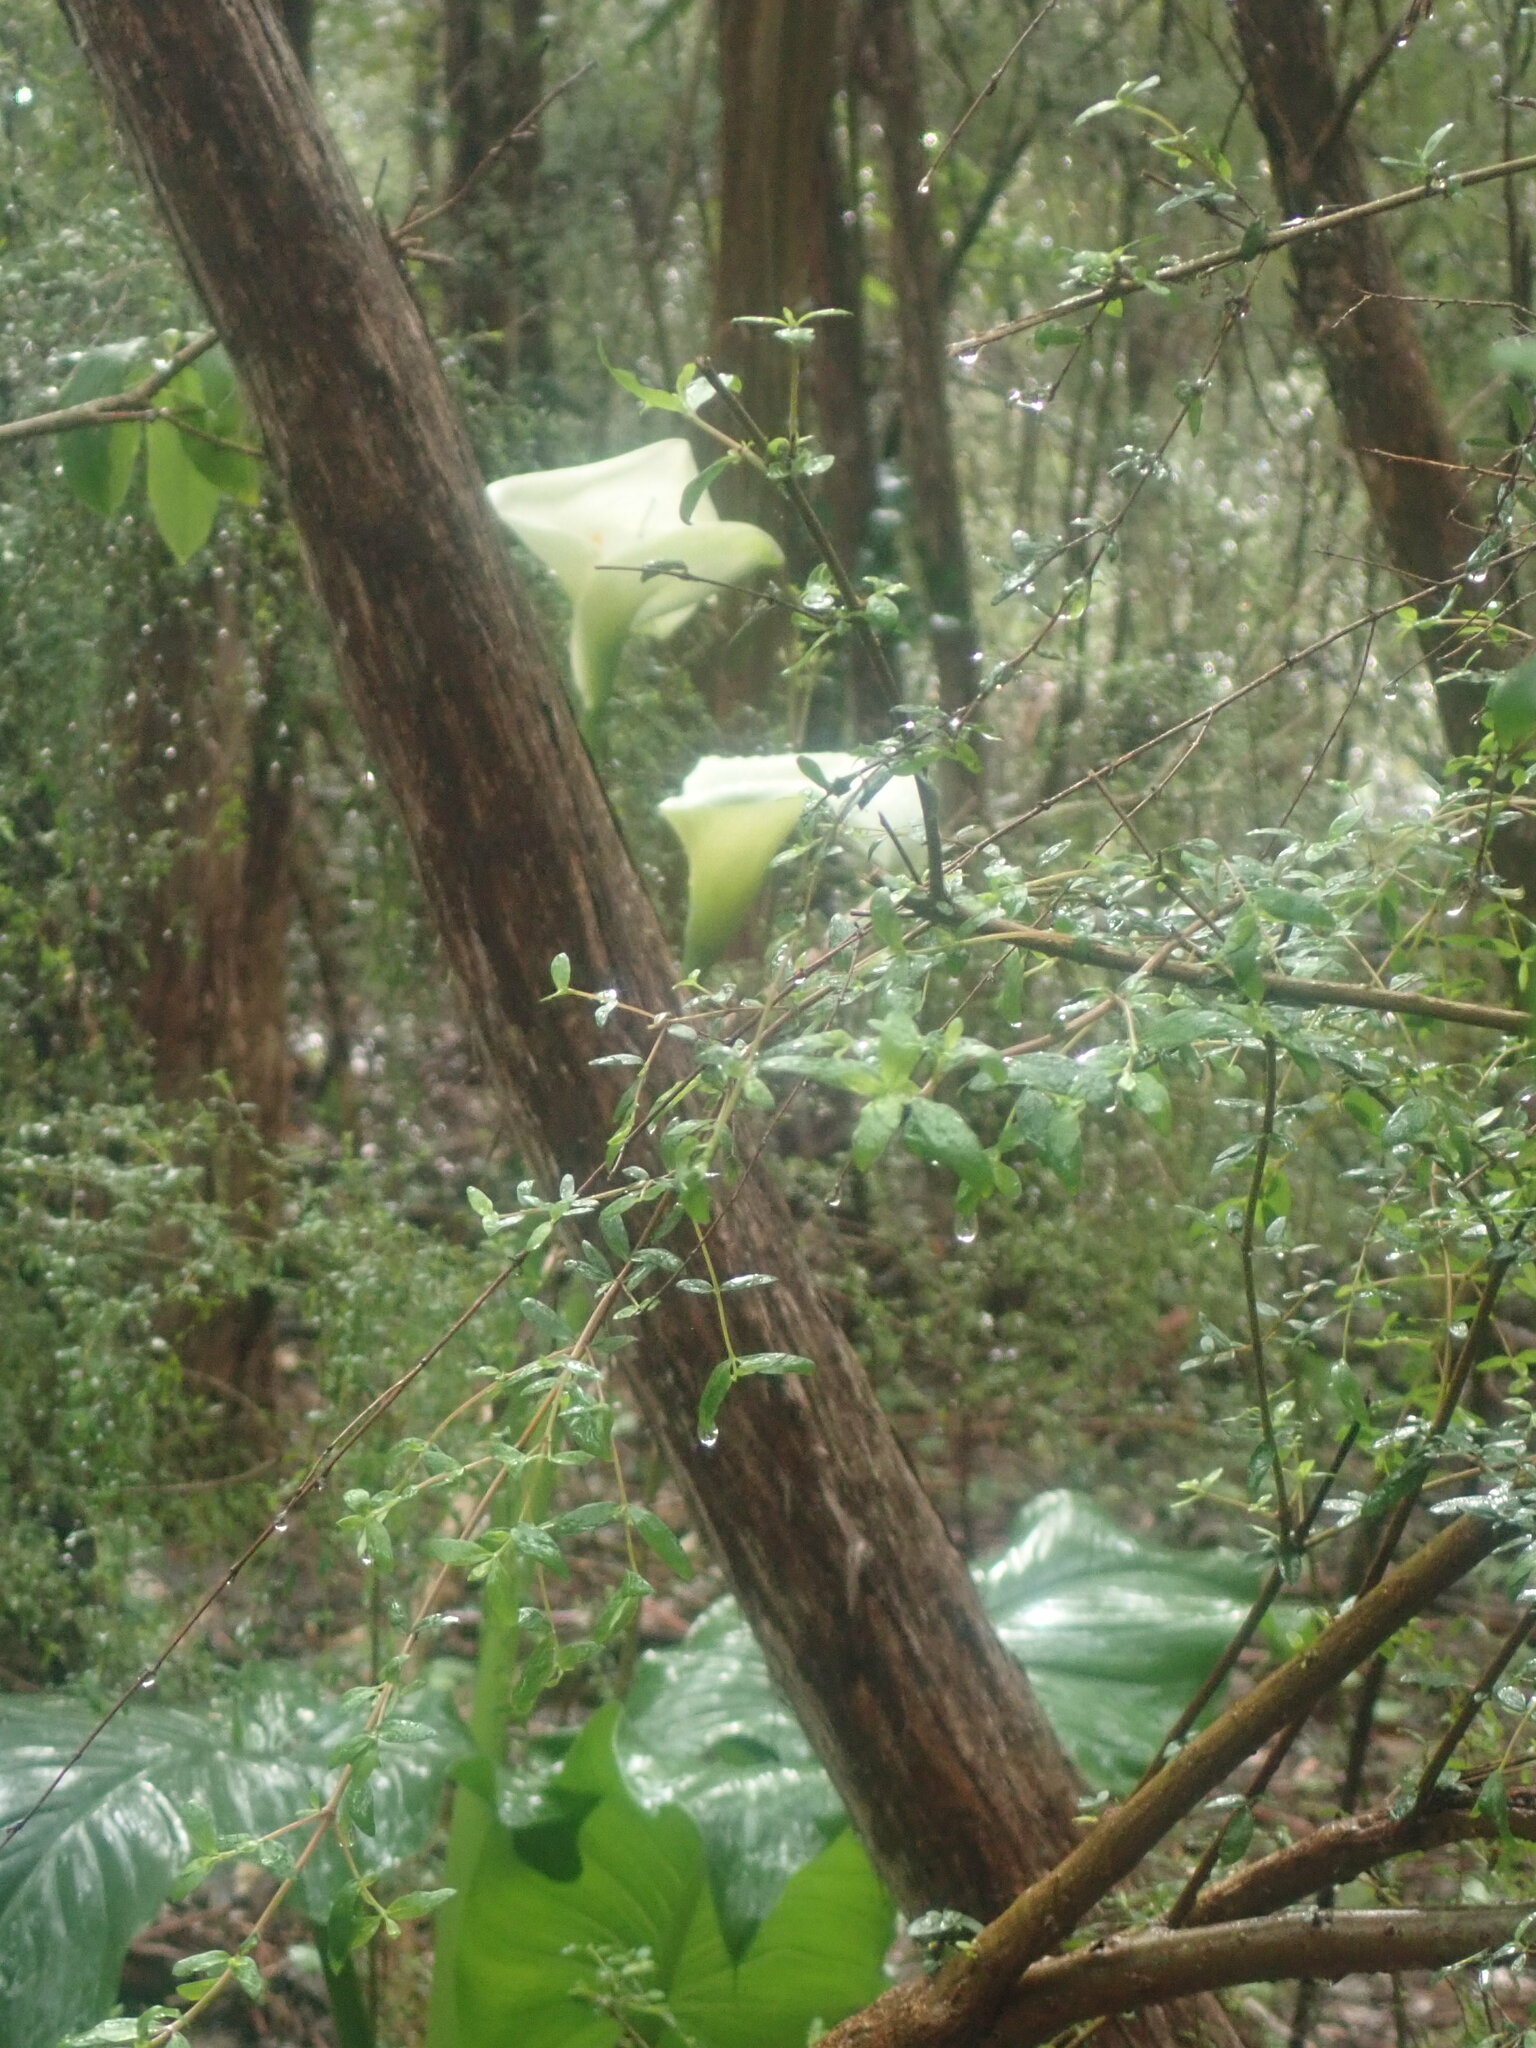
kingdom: Plantae
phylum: Tracheophyta
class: Liliopsida
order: Alismatales
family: Araceae
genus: Zantedeschia
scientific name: Zantedeschia aethiopica
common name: Altar-lily
